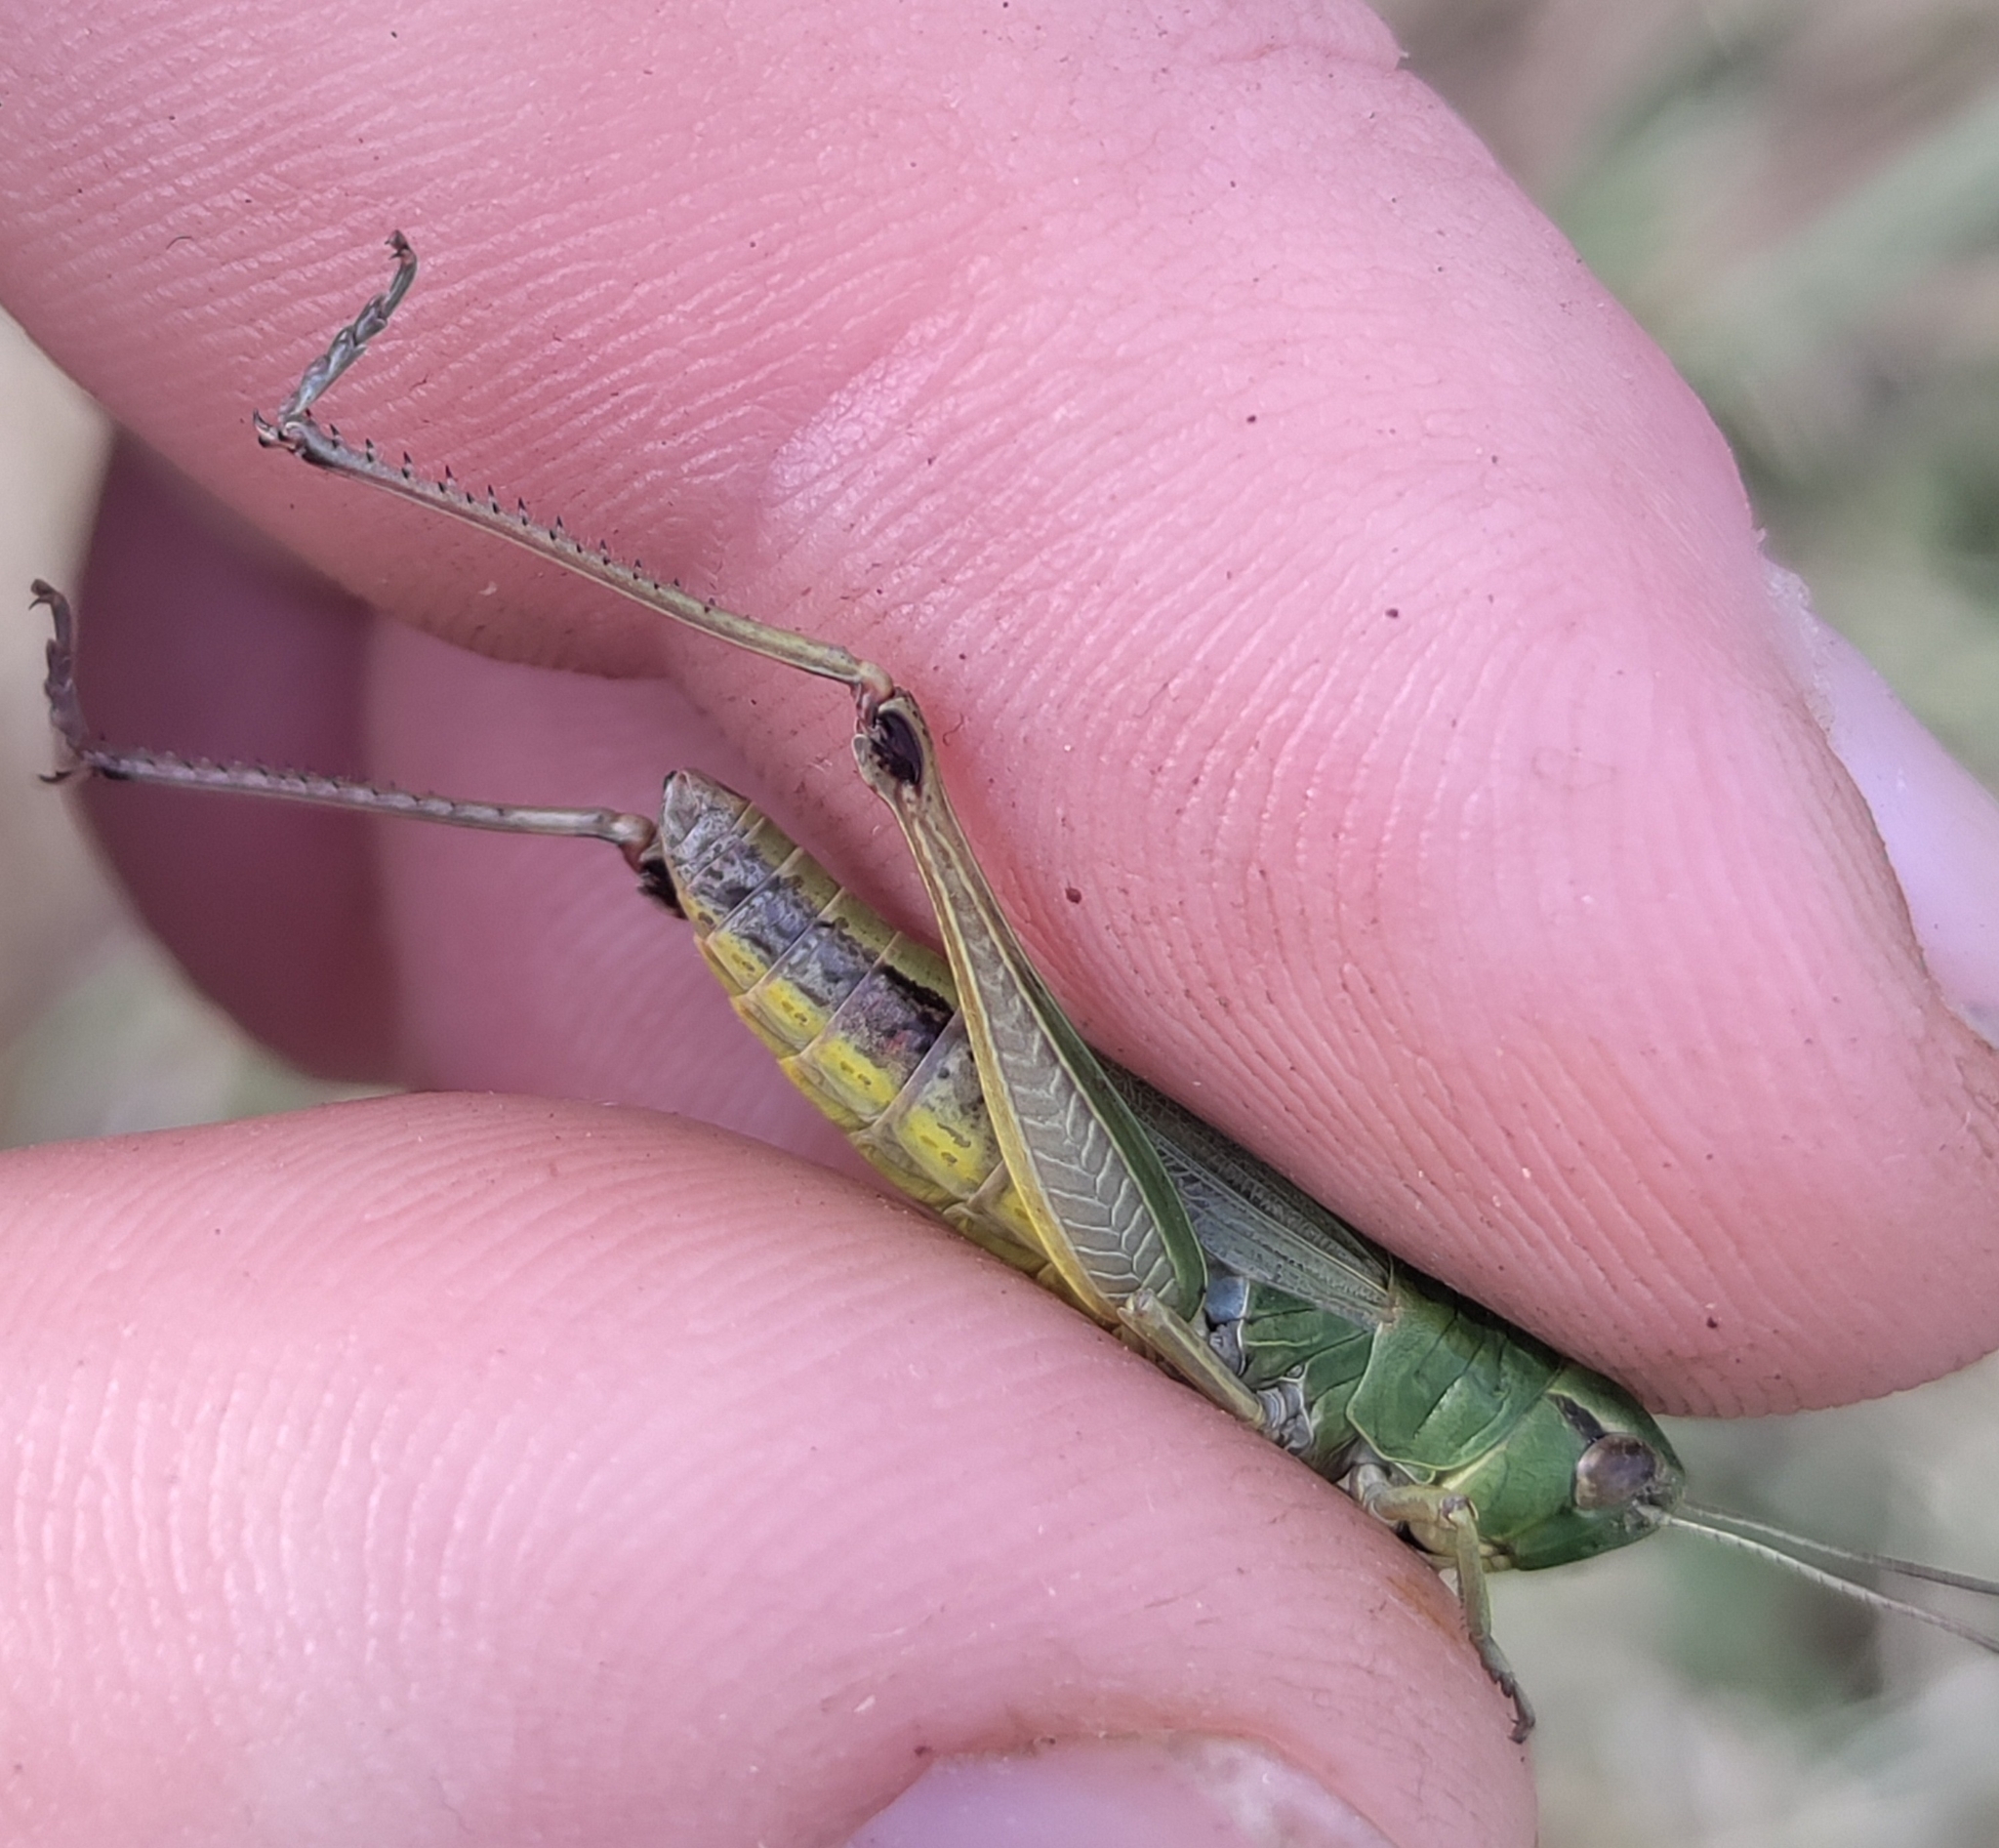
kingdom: Animalia
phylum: Arthropoda
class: Insecta
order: Orthoptera
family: Acrididae
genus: Pseudochorthippus
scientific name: Pseudochorthippus parallelus
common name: Meadow grasshopper
